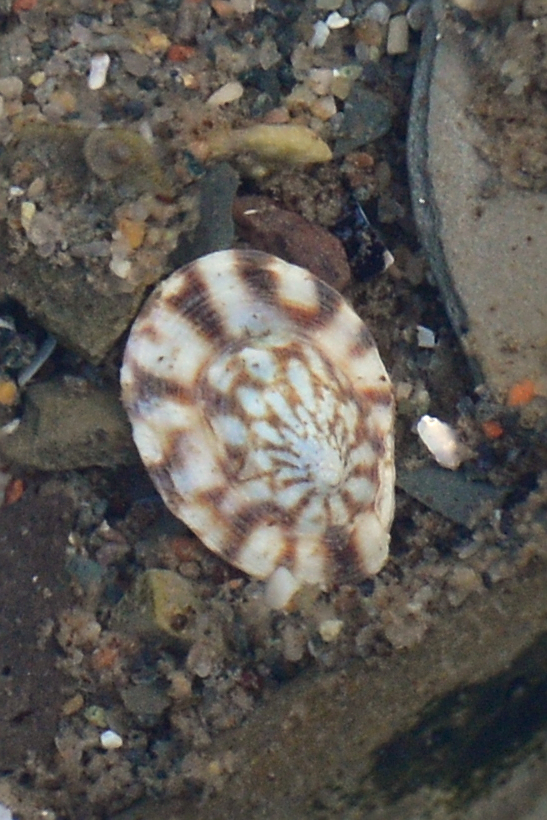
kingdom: Animalia
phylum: Mollusca
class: Gastropoda
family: Lottiidae
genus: Testudinalia
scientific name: Testudinalia testudinalis
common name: Common tortoiseshell limpet
